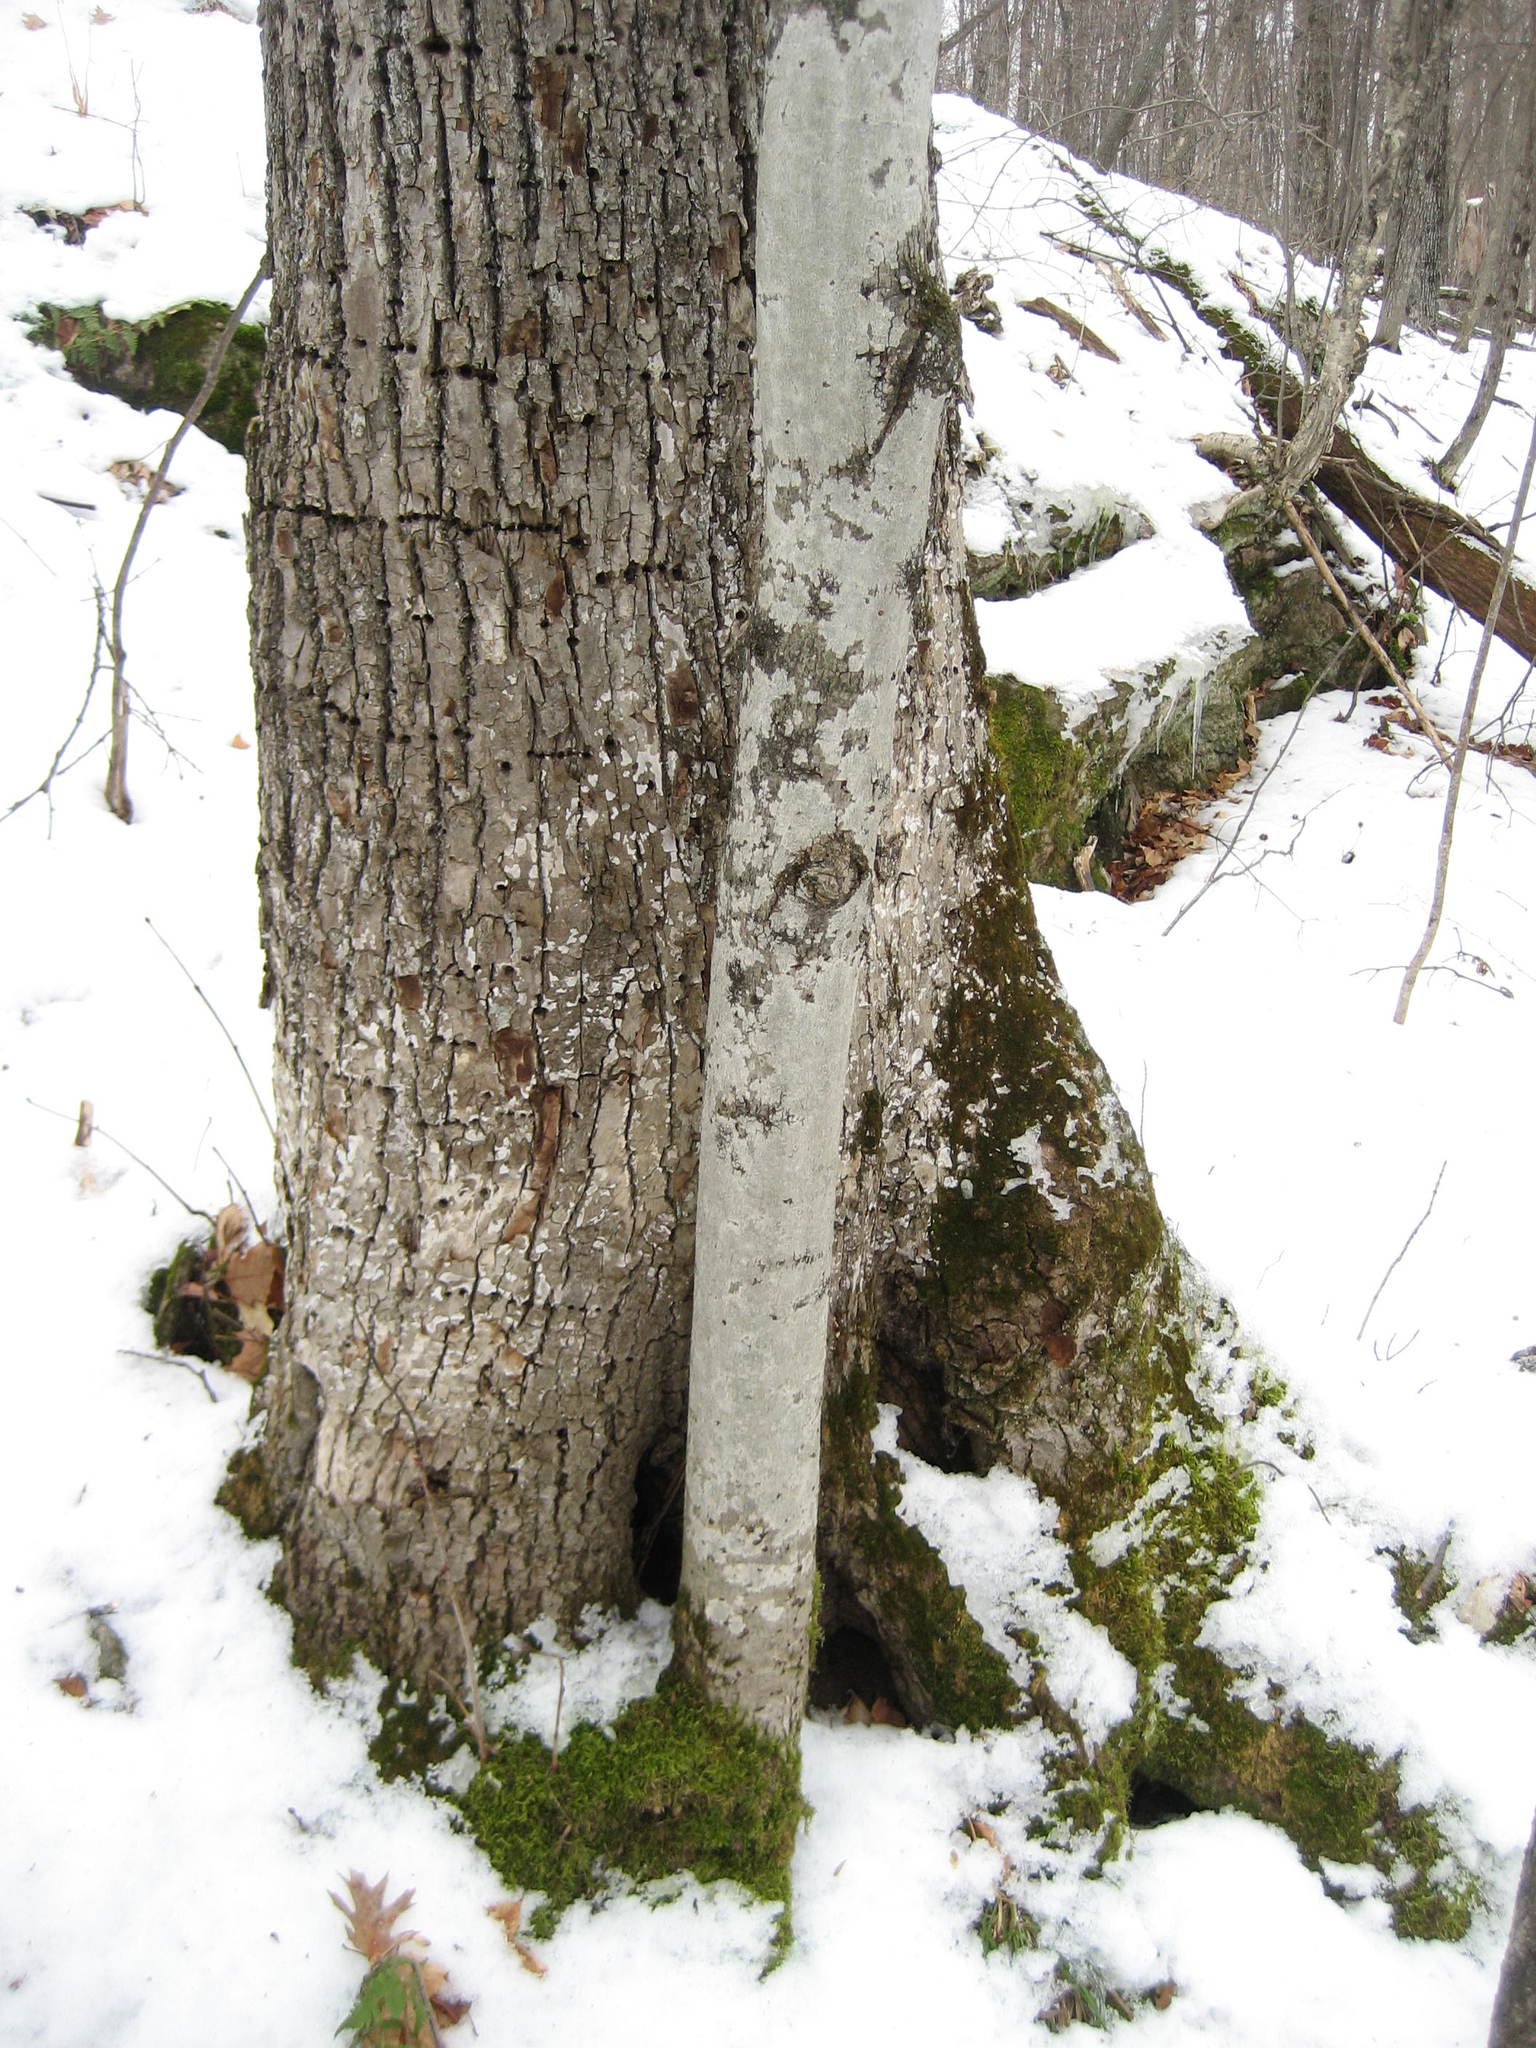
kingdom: Plantae
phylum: Tracheophyta
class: Magnoliopsida
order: Malvales
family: Malvaceae
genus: Tilia
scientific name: Tilia americana
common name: Basswood
